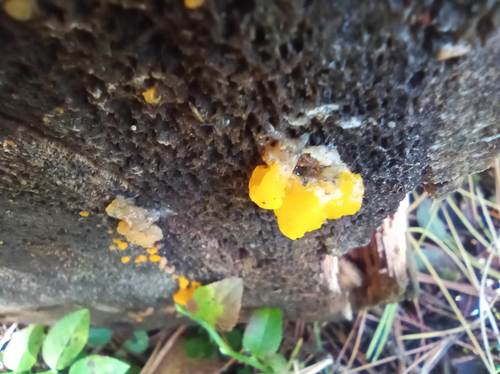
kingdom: Fungi
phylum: Basidiomycota
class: Tremellomycetes
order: Tremellales
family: Tremellaceae
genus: Tremella
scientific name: Tremella mesenterica
